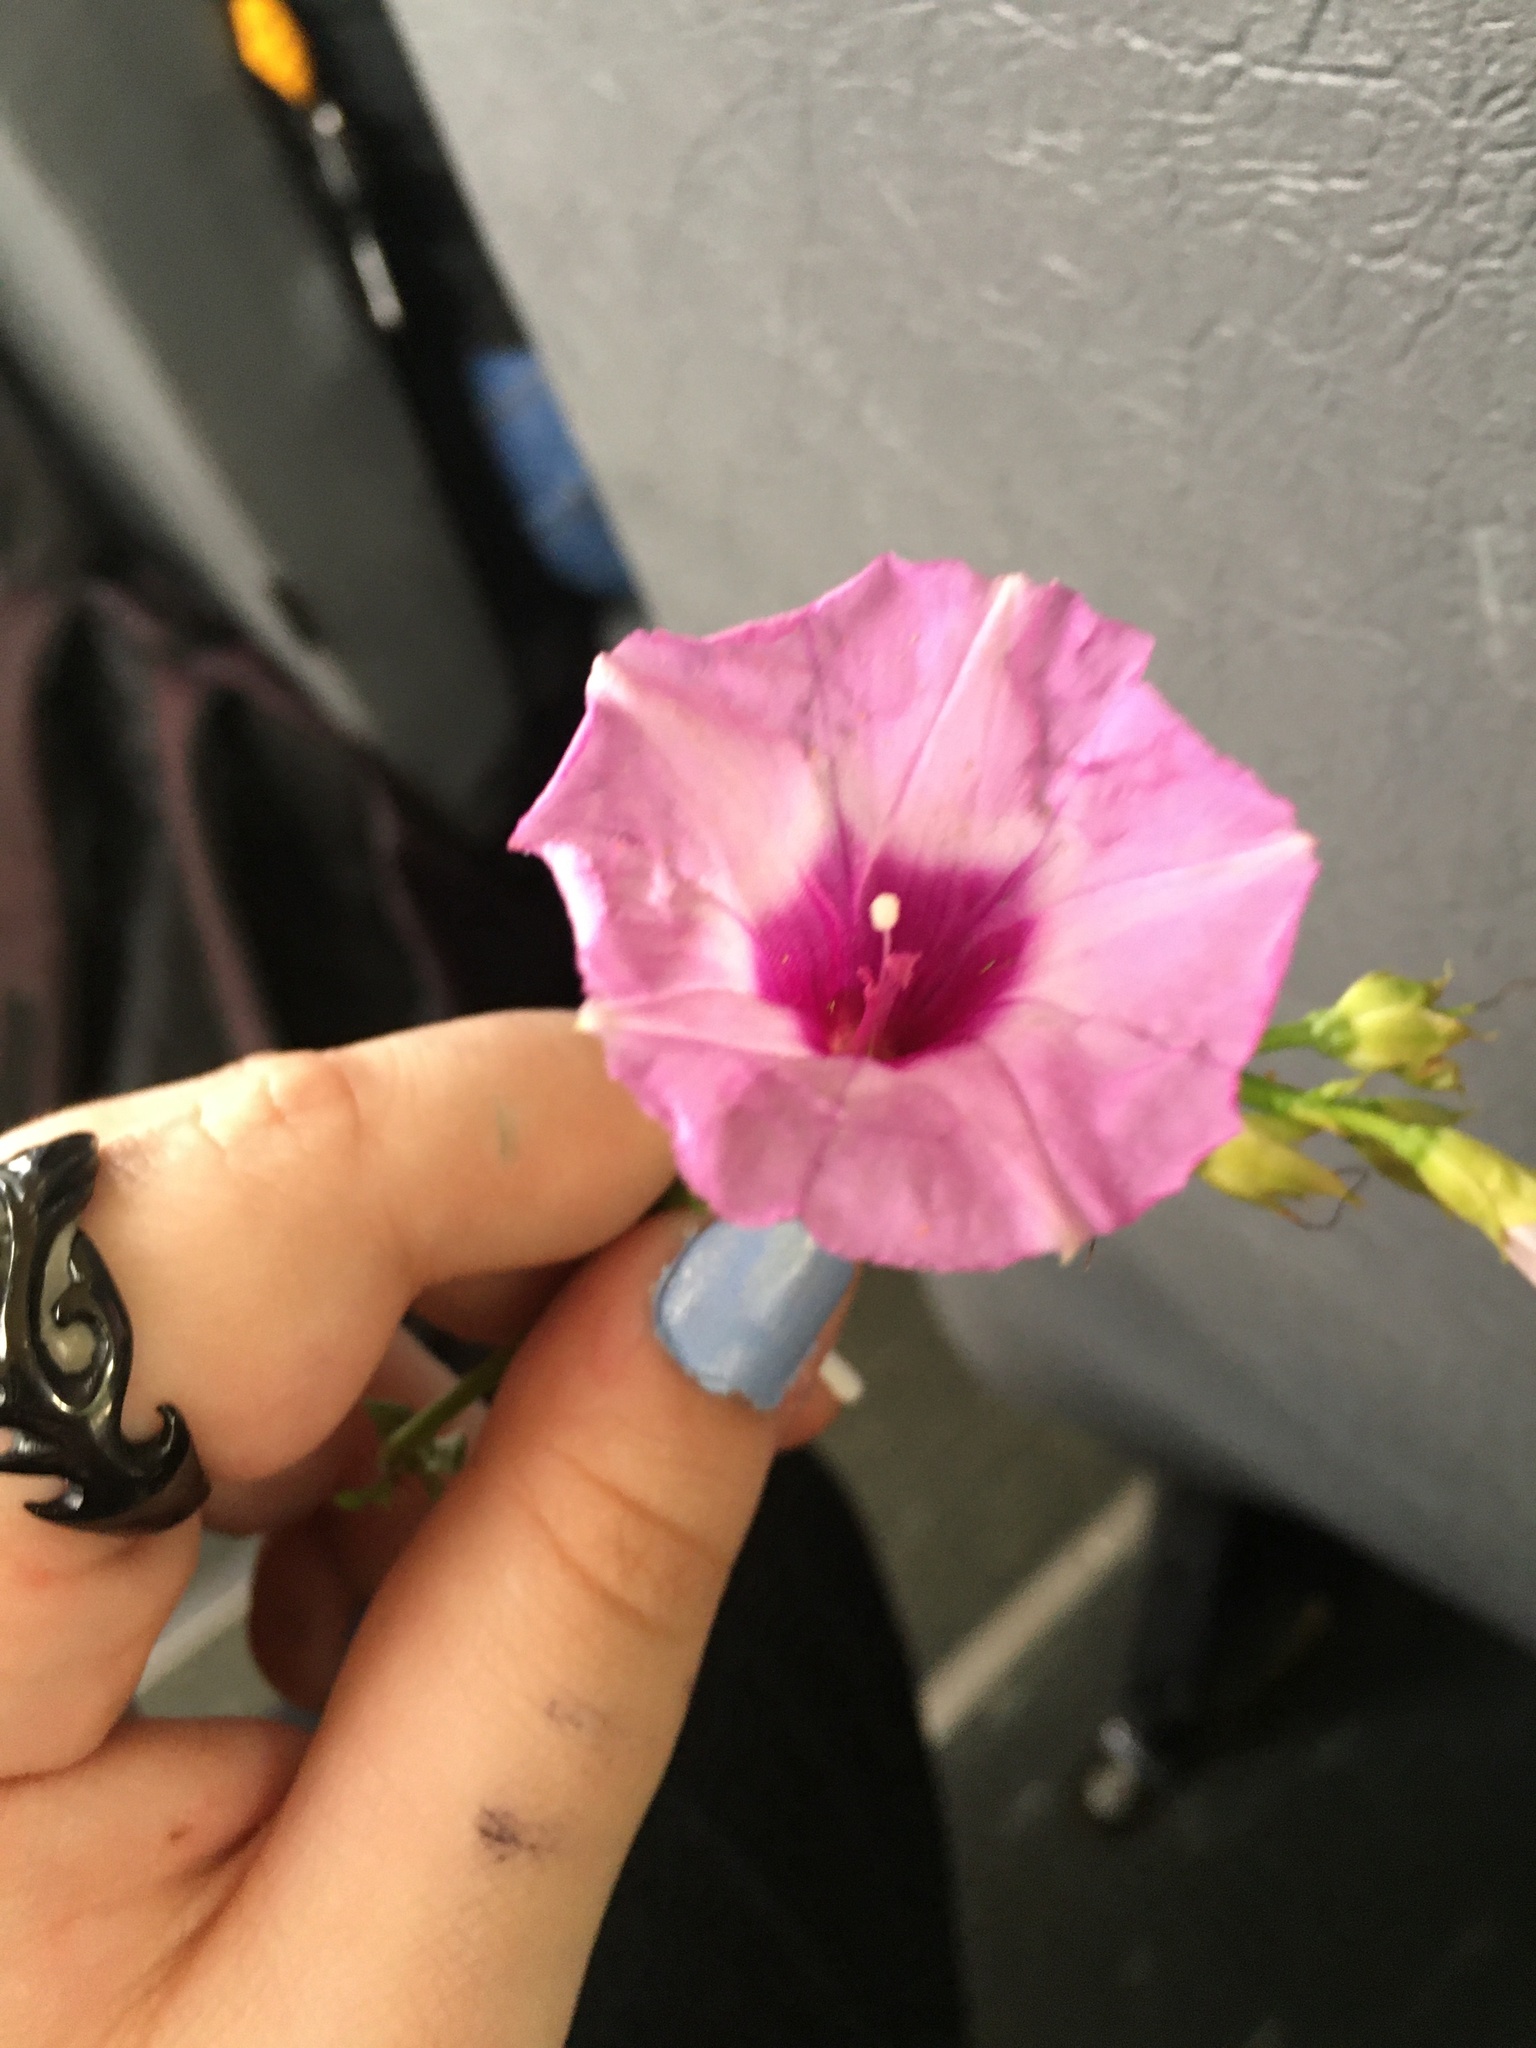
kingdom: Plantae
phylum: Tracheophyta
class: Magnoliopsida
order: Solanales
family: Convolvulaceae
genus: Ipomoea
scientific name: Ipomoea cordatotriloba
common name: Cotton morning glory
